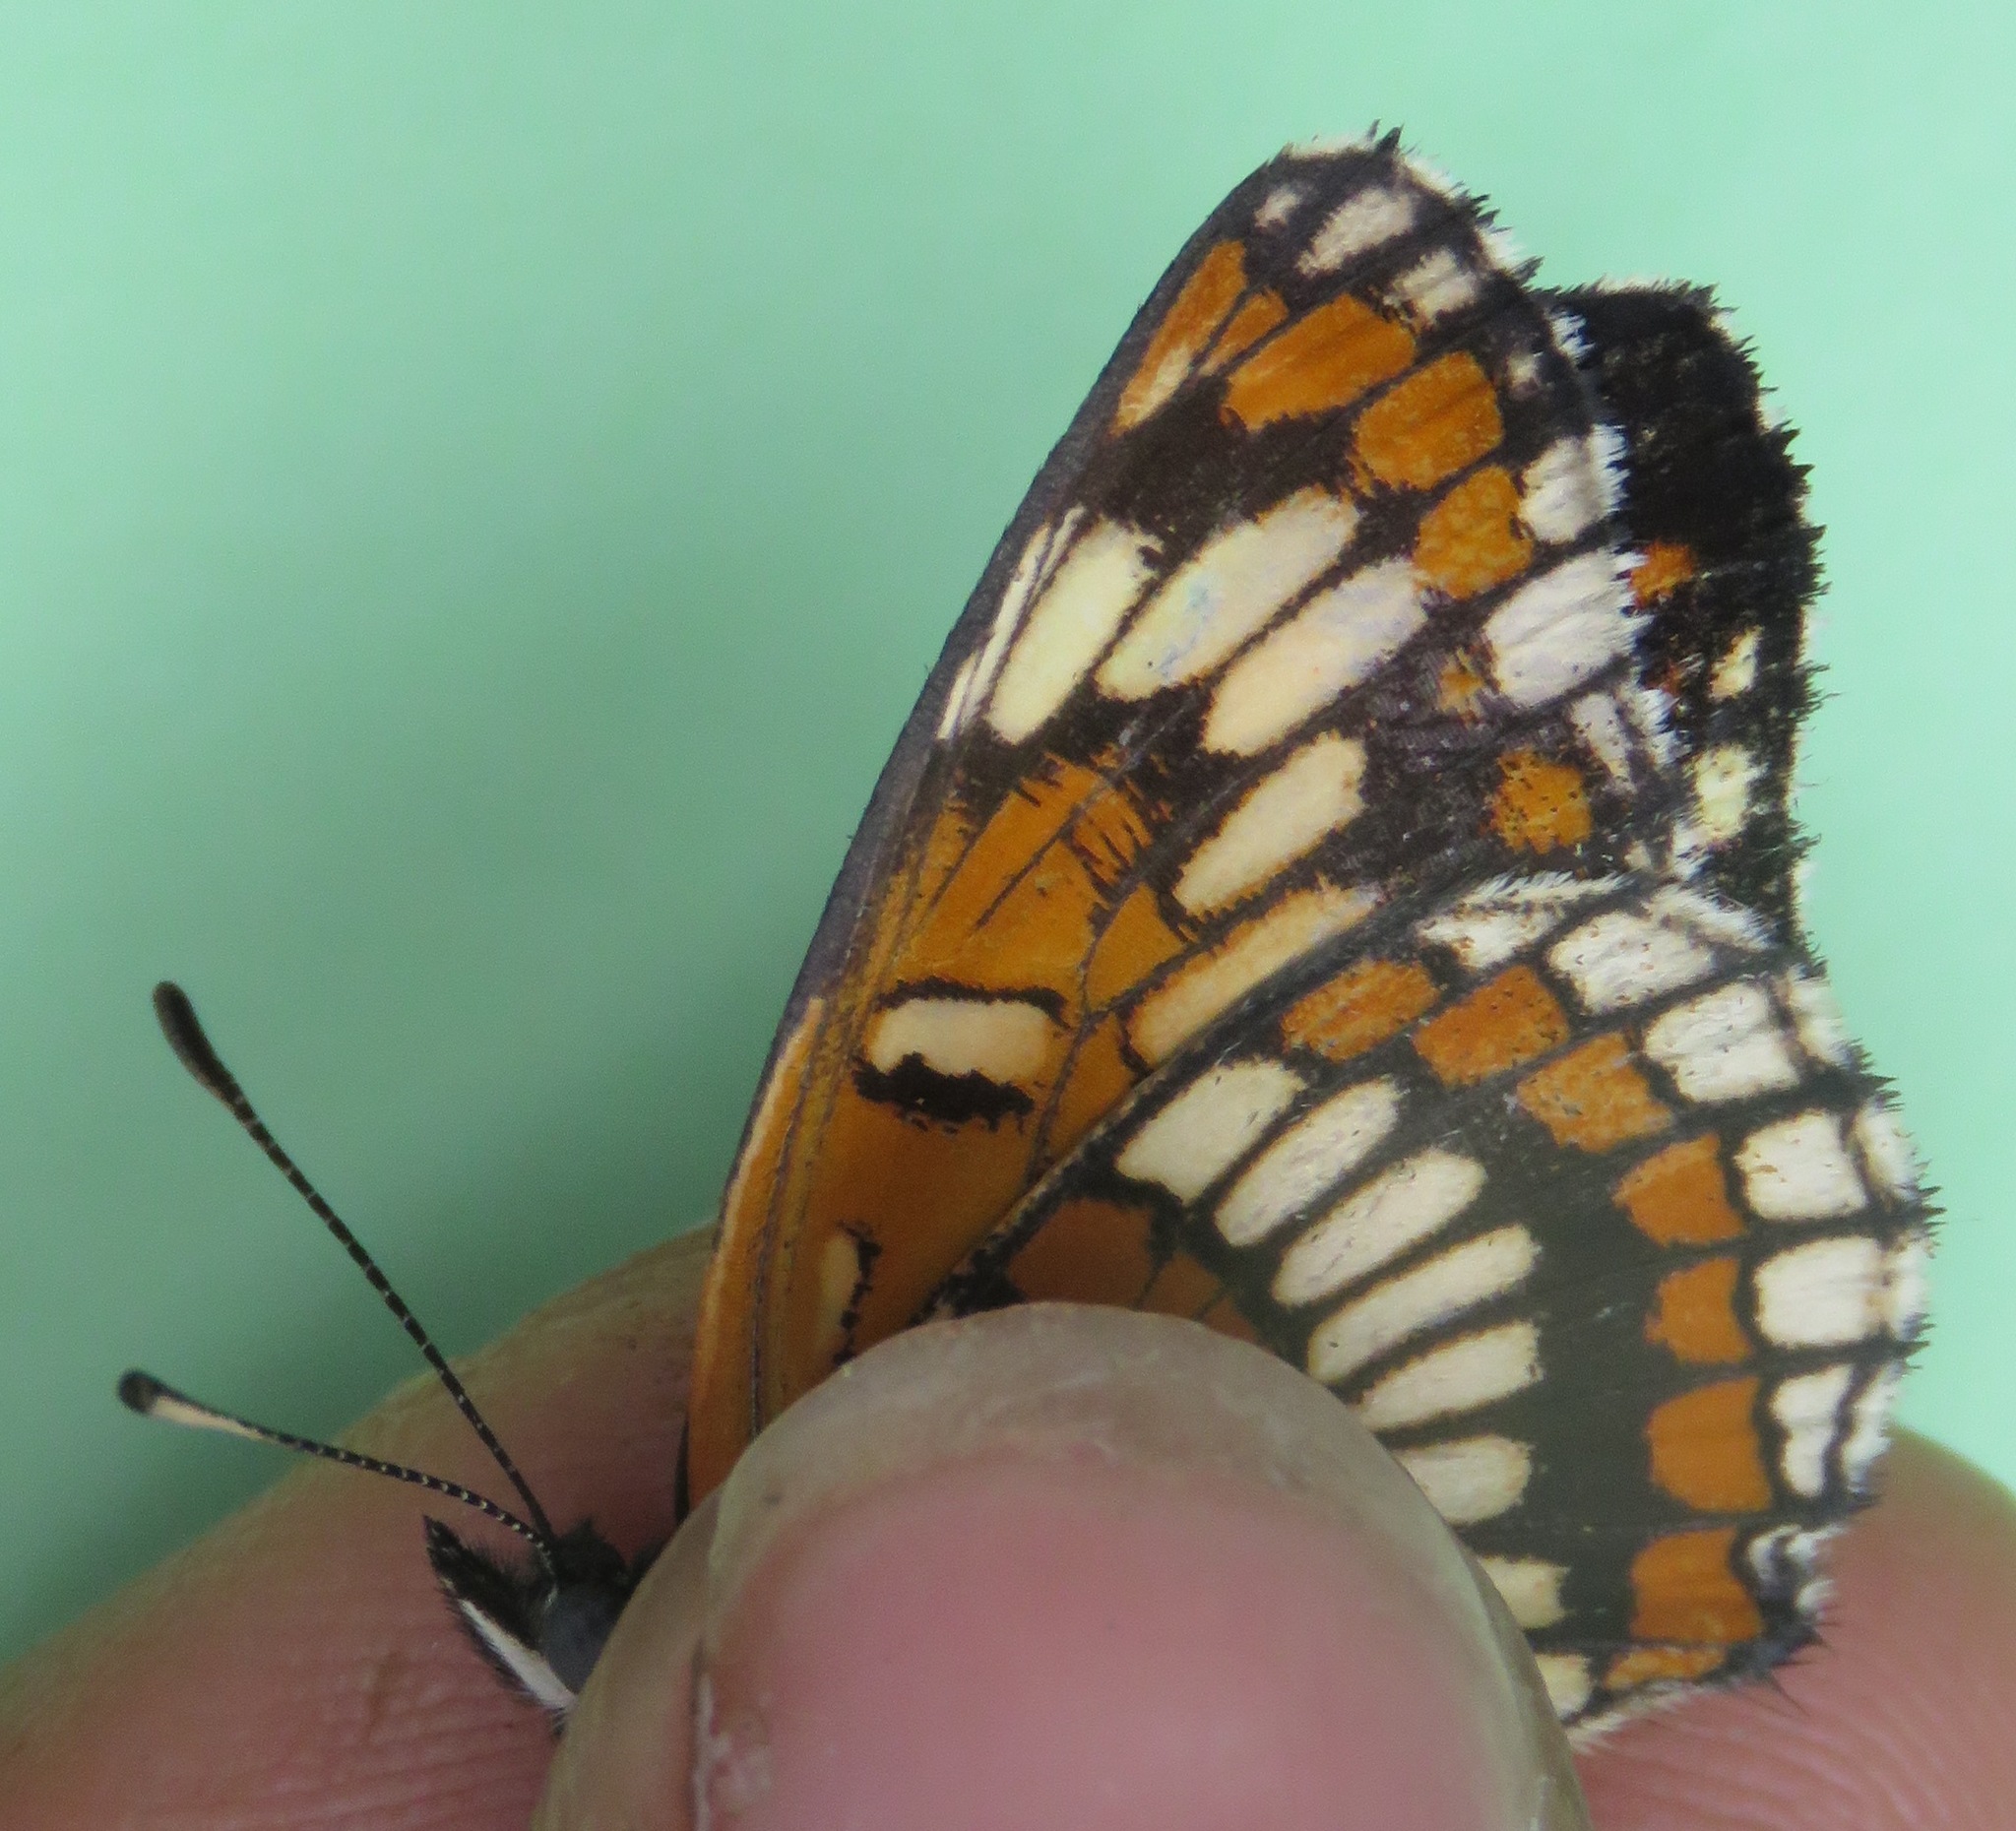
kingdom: Animalia
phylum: Arthropoda
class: Insecta
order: Lepidoptera
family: Nymphalidae
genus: Thessalia
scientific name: Thessalia theona
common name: Nymphalid moth
